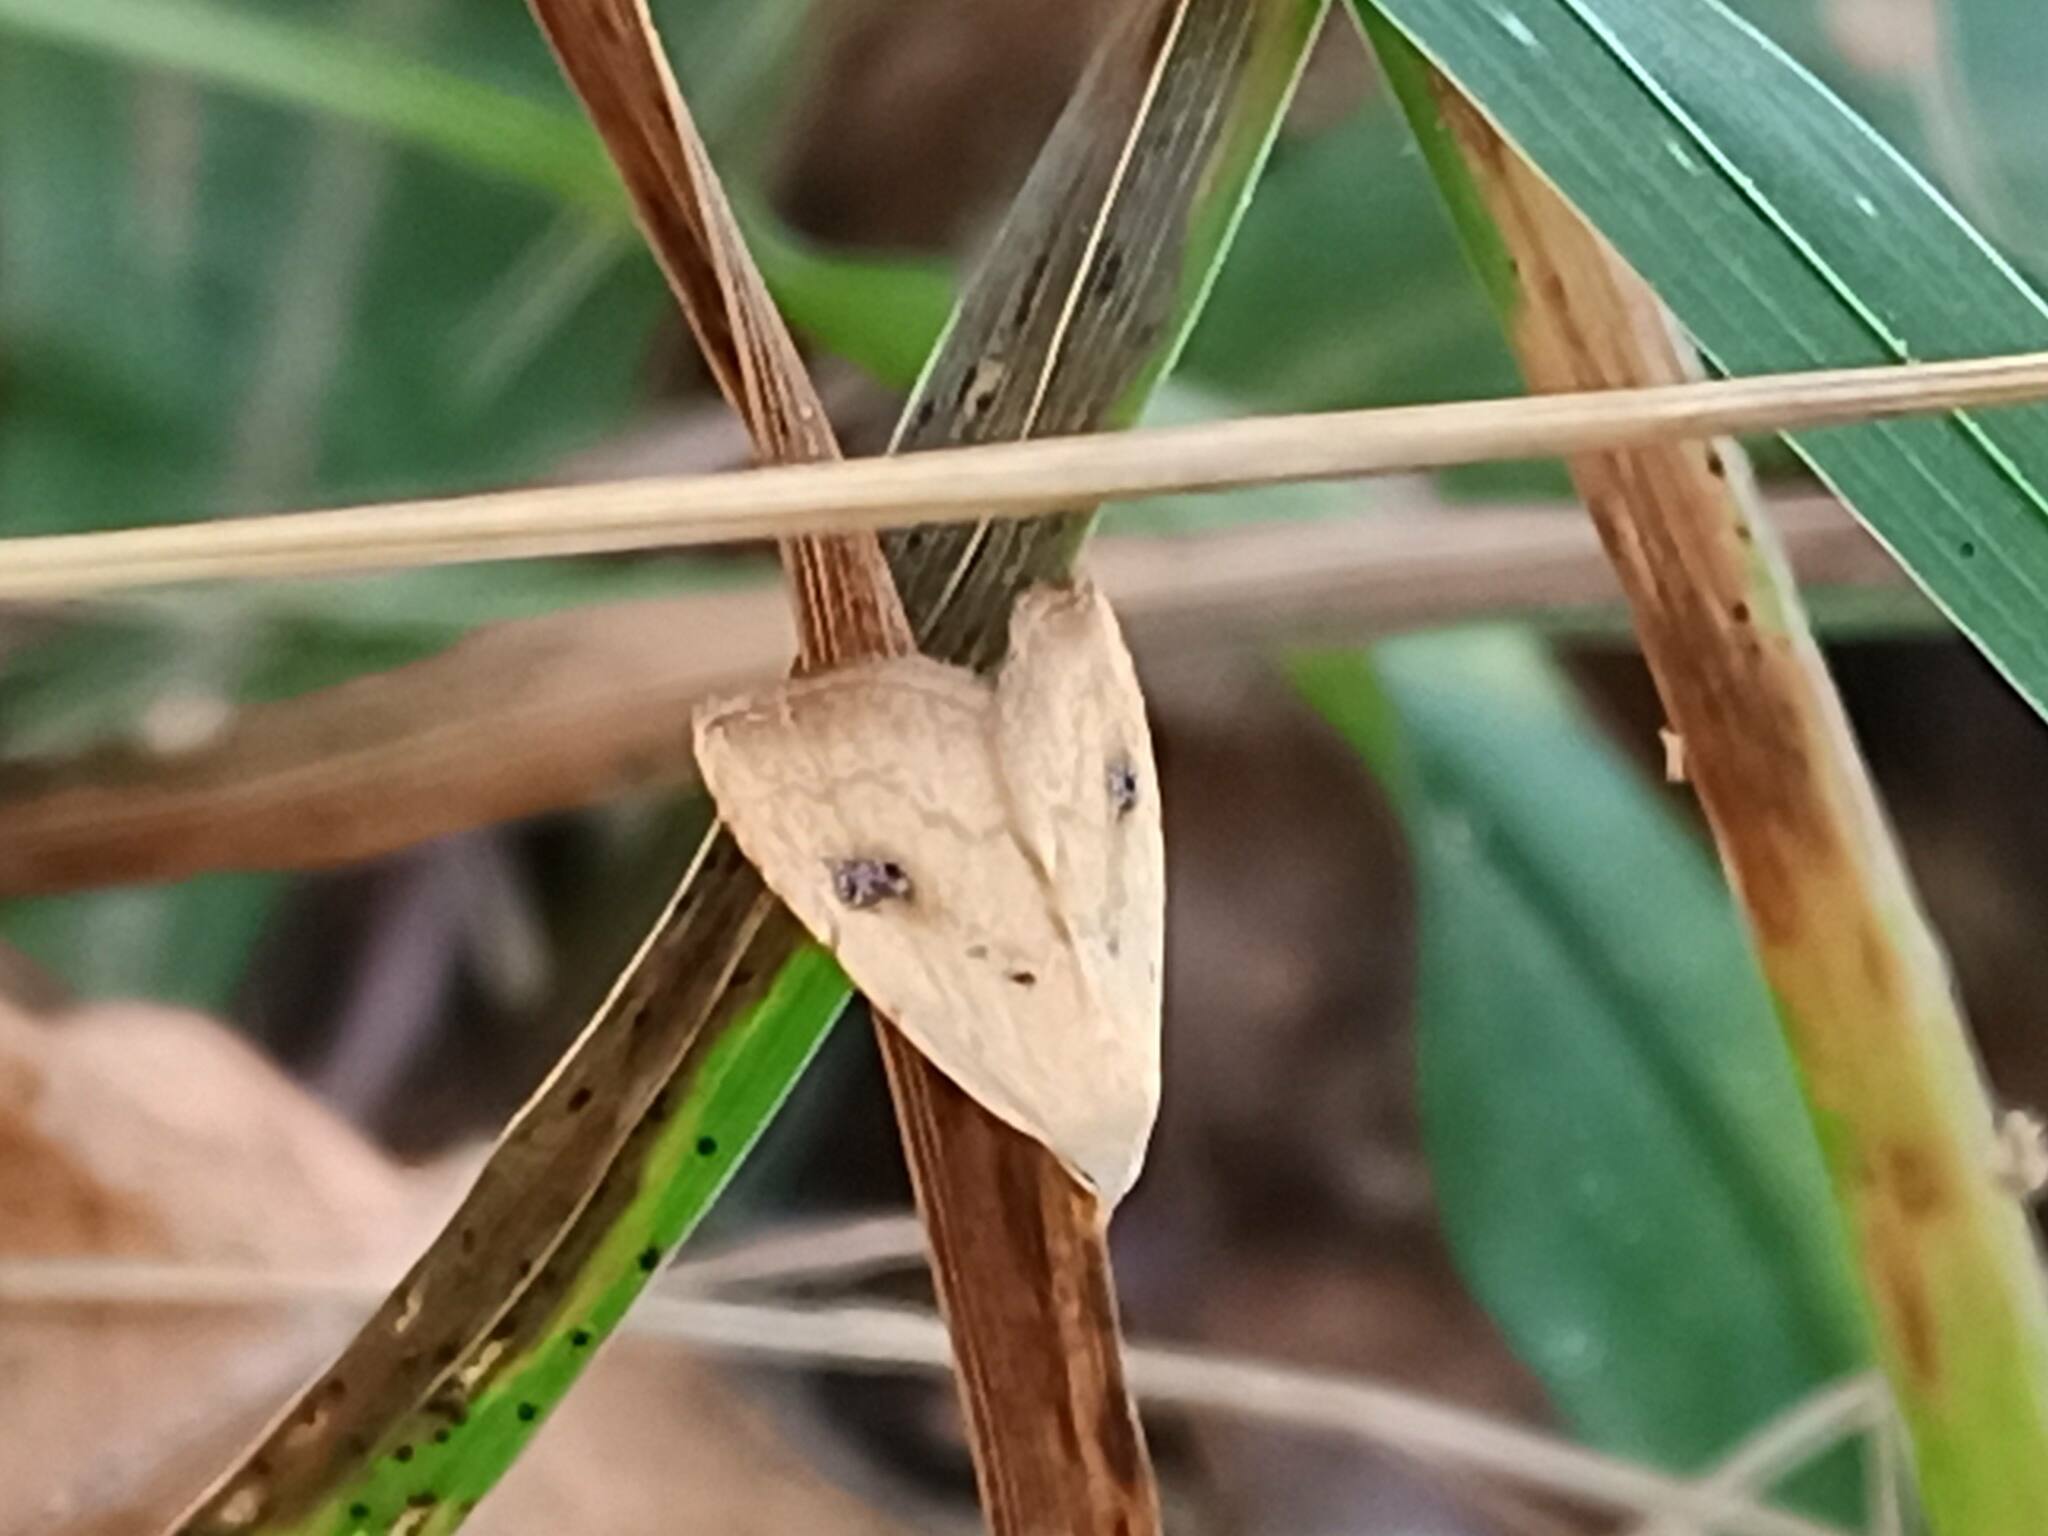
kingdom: Animalia
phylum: Arthropoda
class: Insecta
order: Lepidoptera
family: Erebidae
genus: Rivula
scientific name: Rivula sericealis
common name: Straw dot
